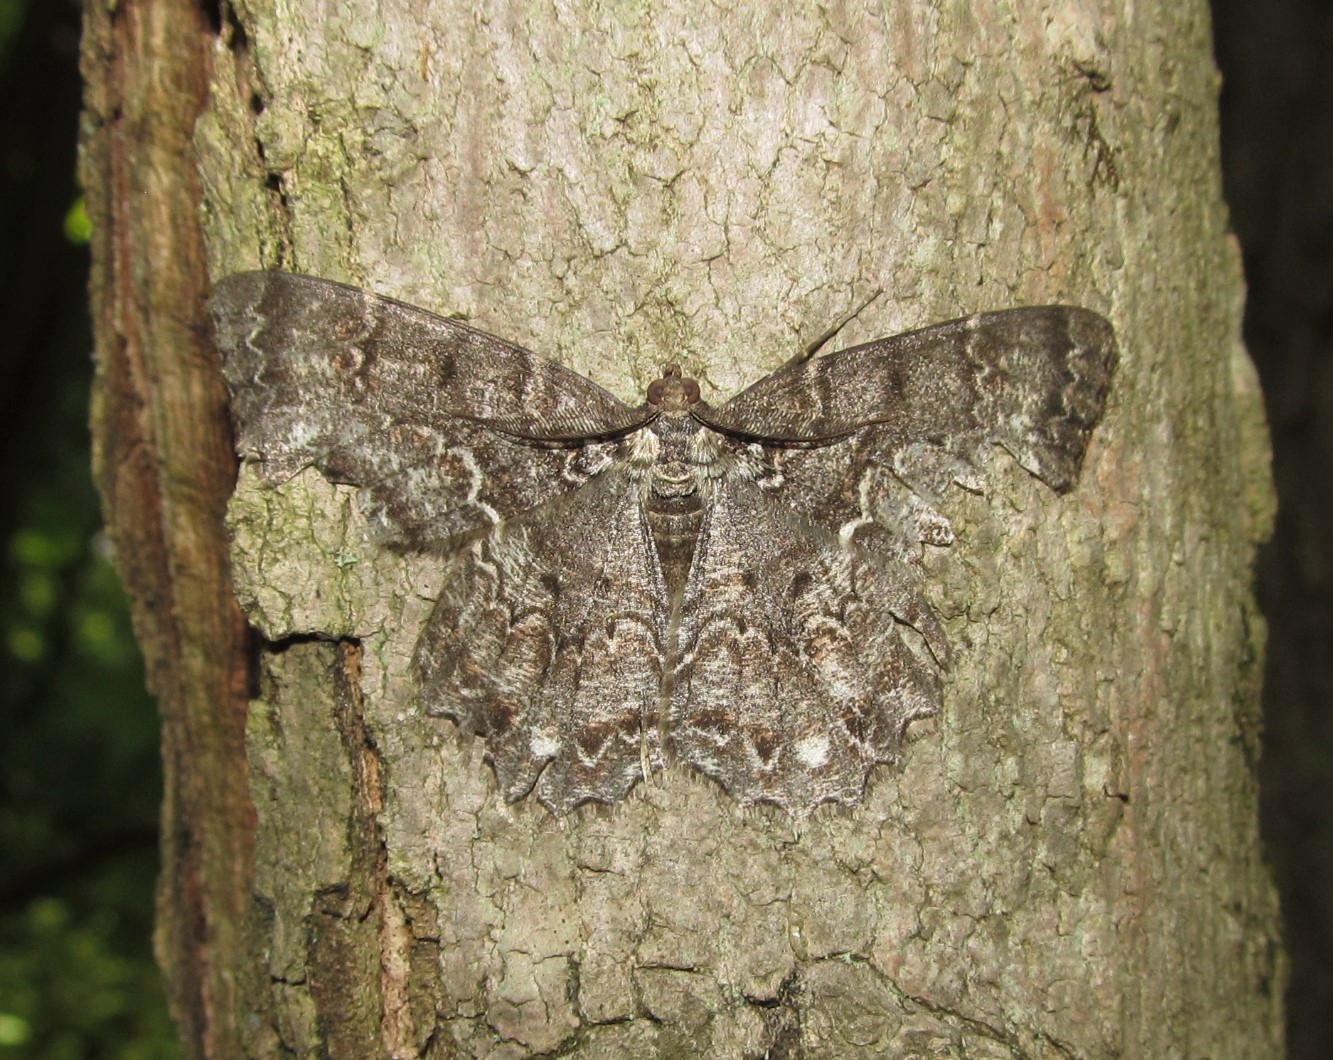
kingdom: Animalia
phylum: Arthropoda
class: Insecta
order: Lepidoptera
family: Geometridae
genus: Epimecis
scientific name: Epimecis hortaria
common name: Tulip-tree beauty
